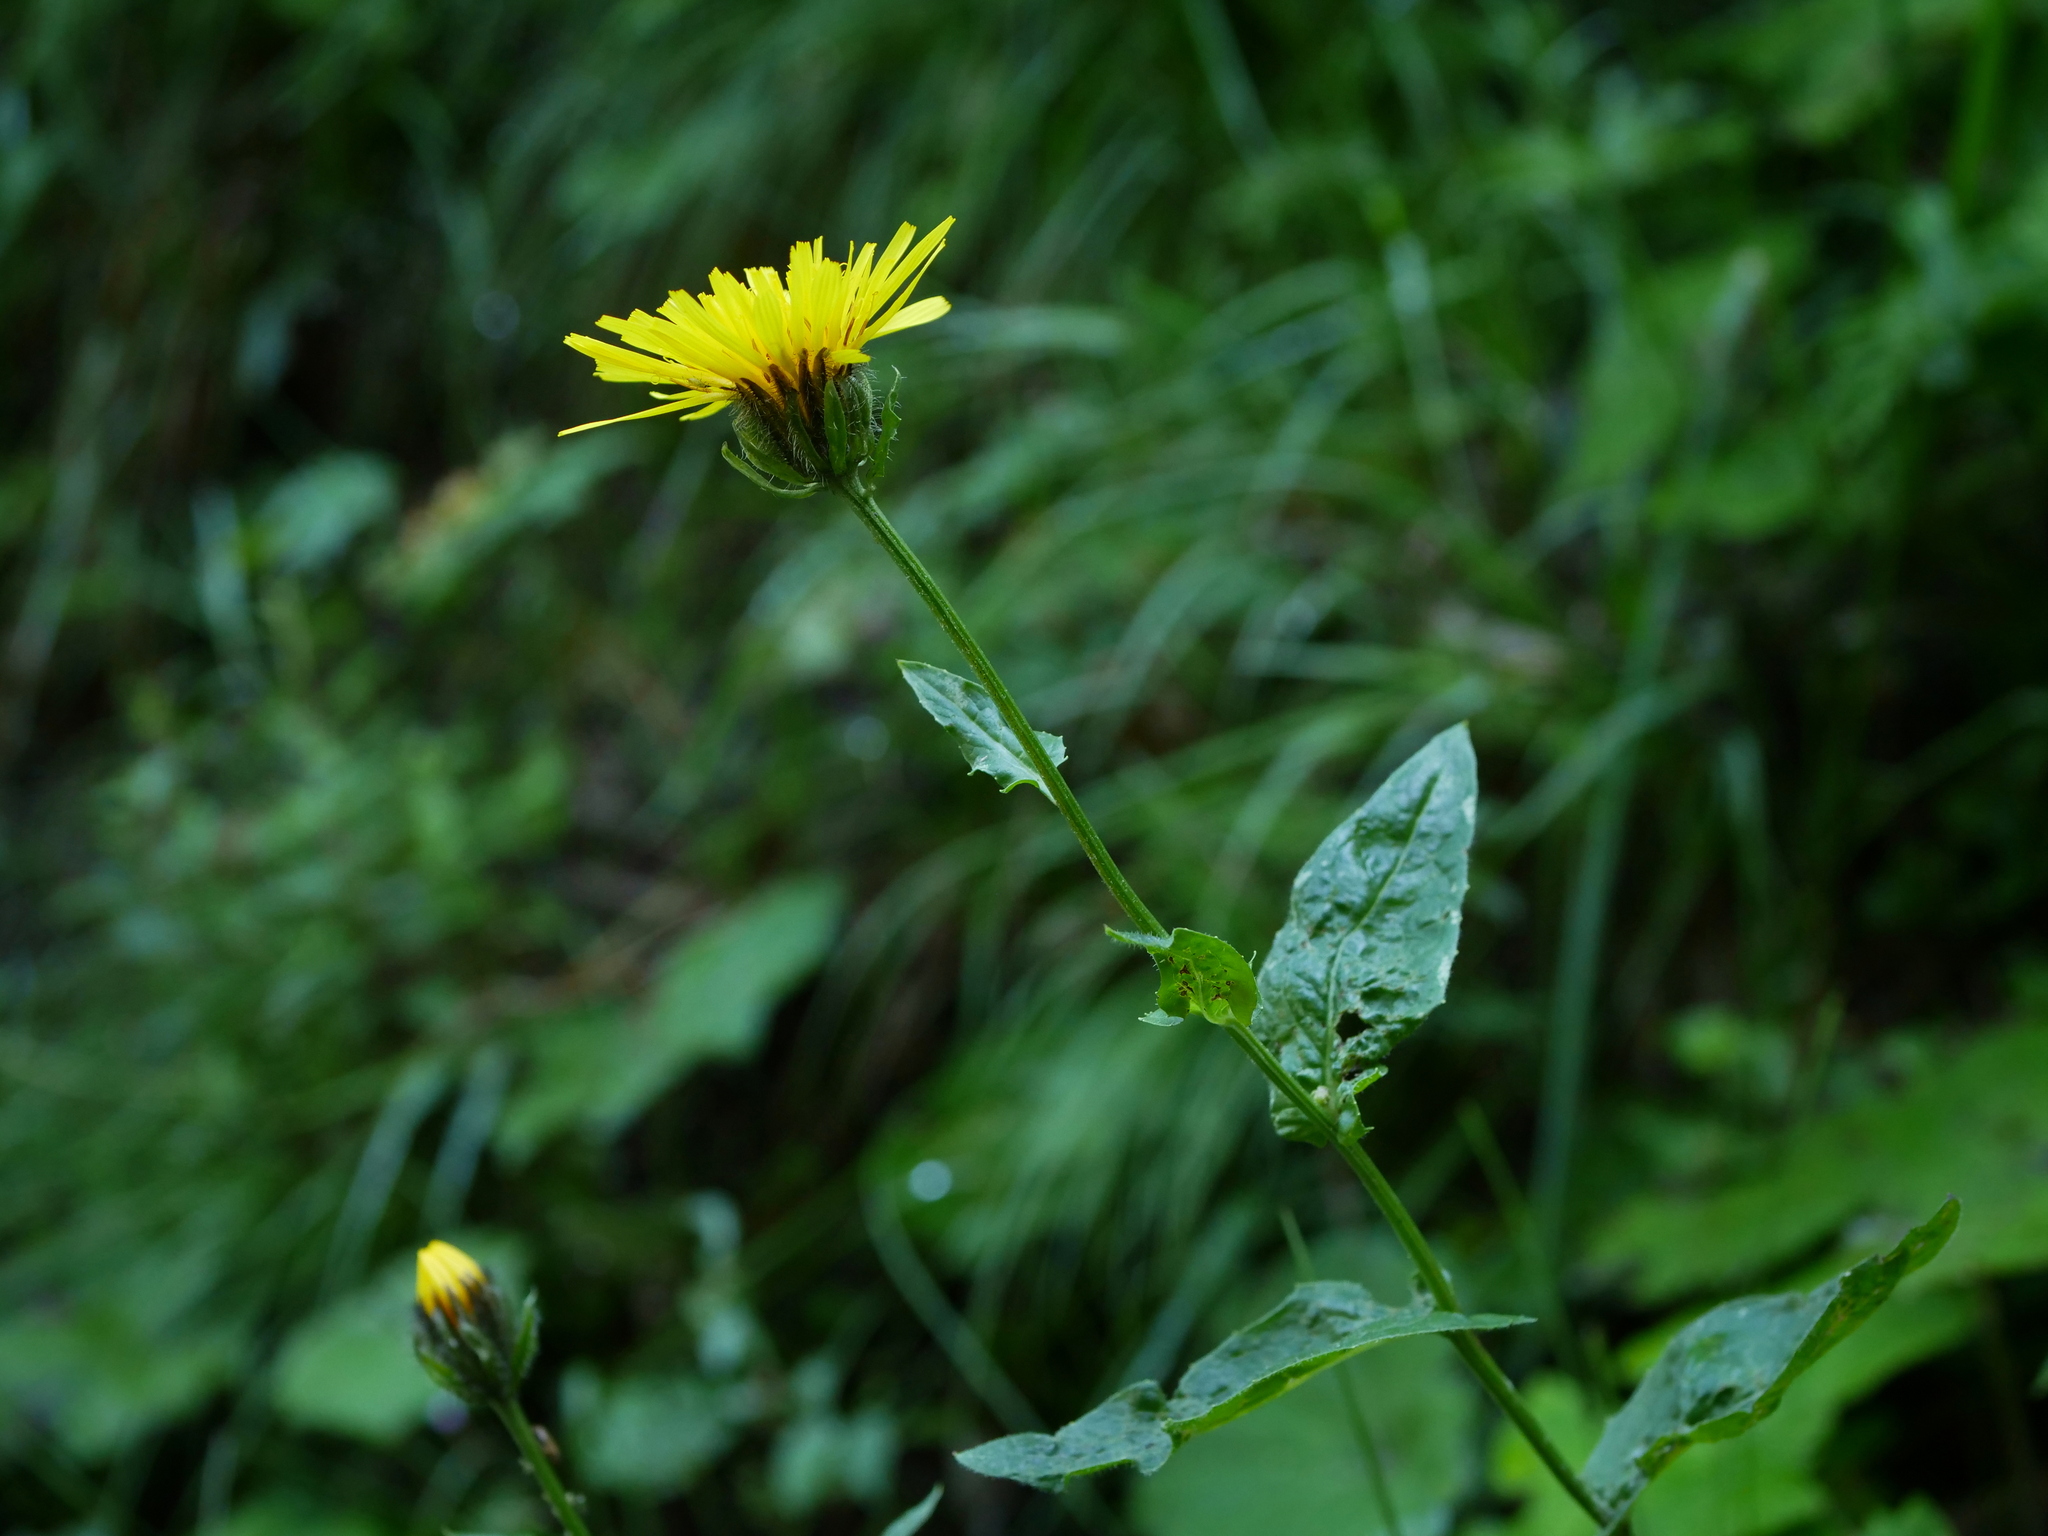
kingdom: Plantae
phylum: Tracheophyta
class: Magnoliopsida
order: Asterales
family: Asteraceae
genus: Crepis
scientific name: Crepis pyrenaica
